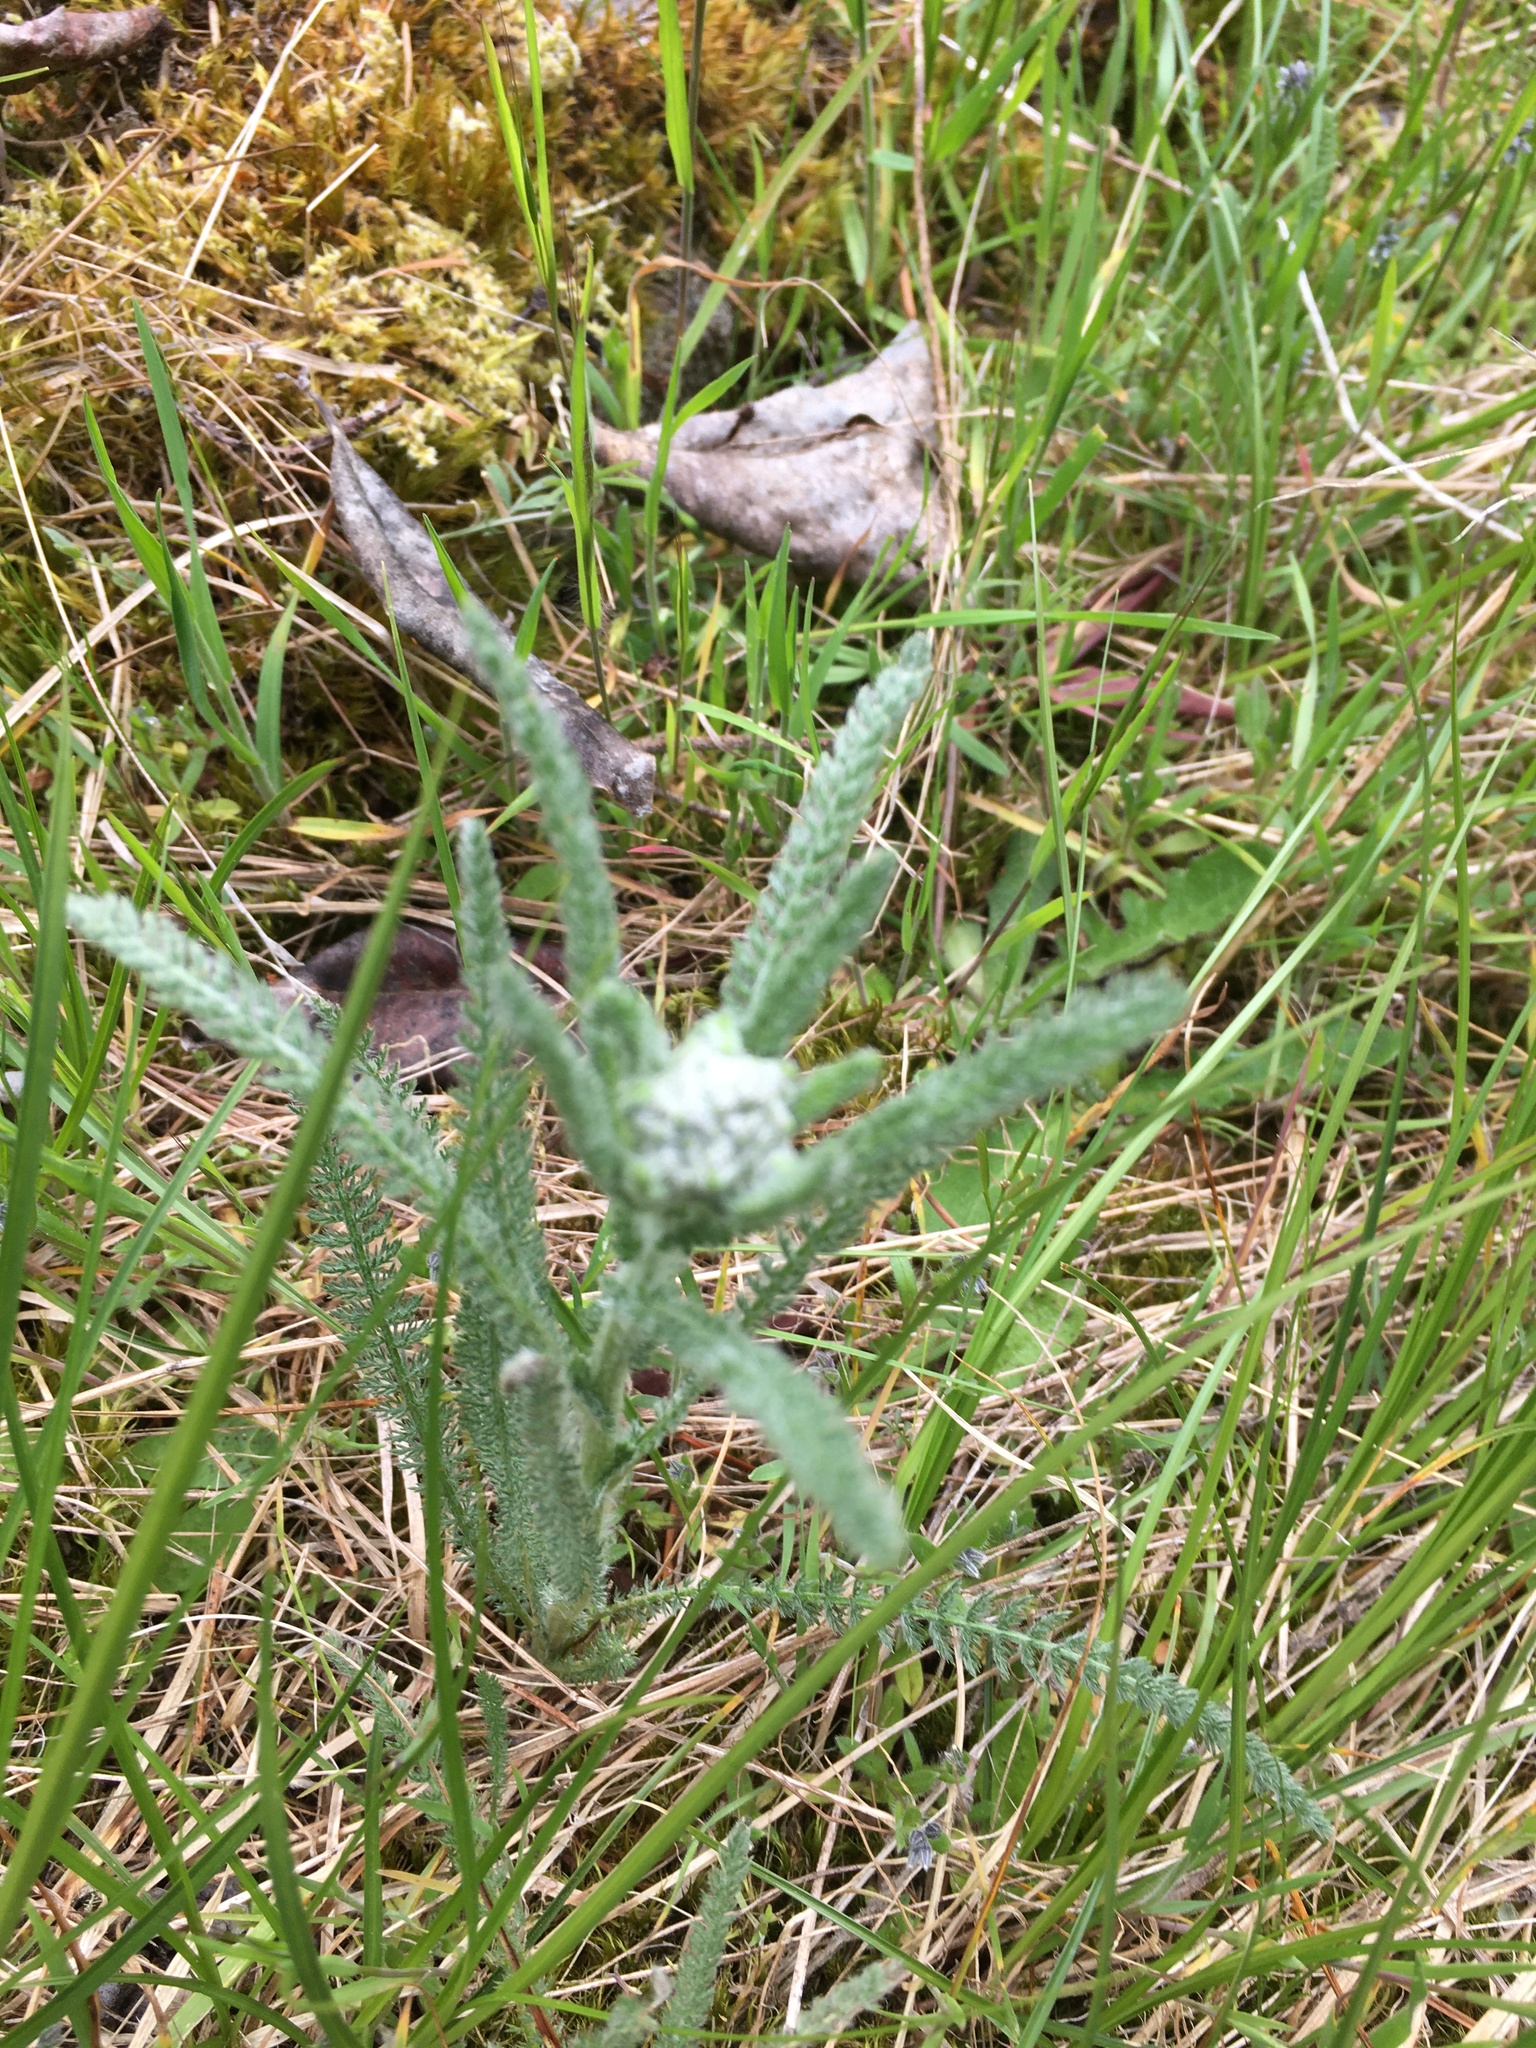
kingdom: Plantae
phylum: Tracheophyta
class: Magnoliopsida
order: Asterales
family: Asteraceae
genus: Achillea
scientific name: Achillea millefolium
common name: Yarrow
